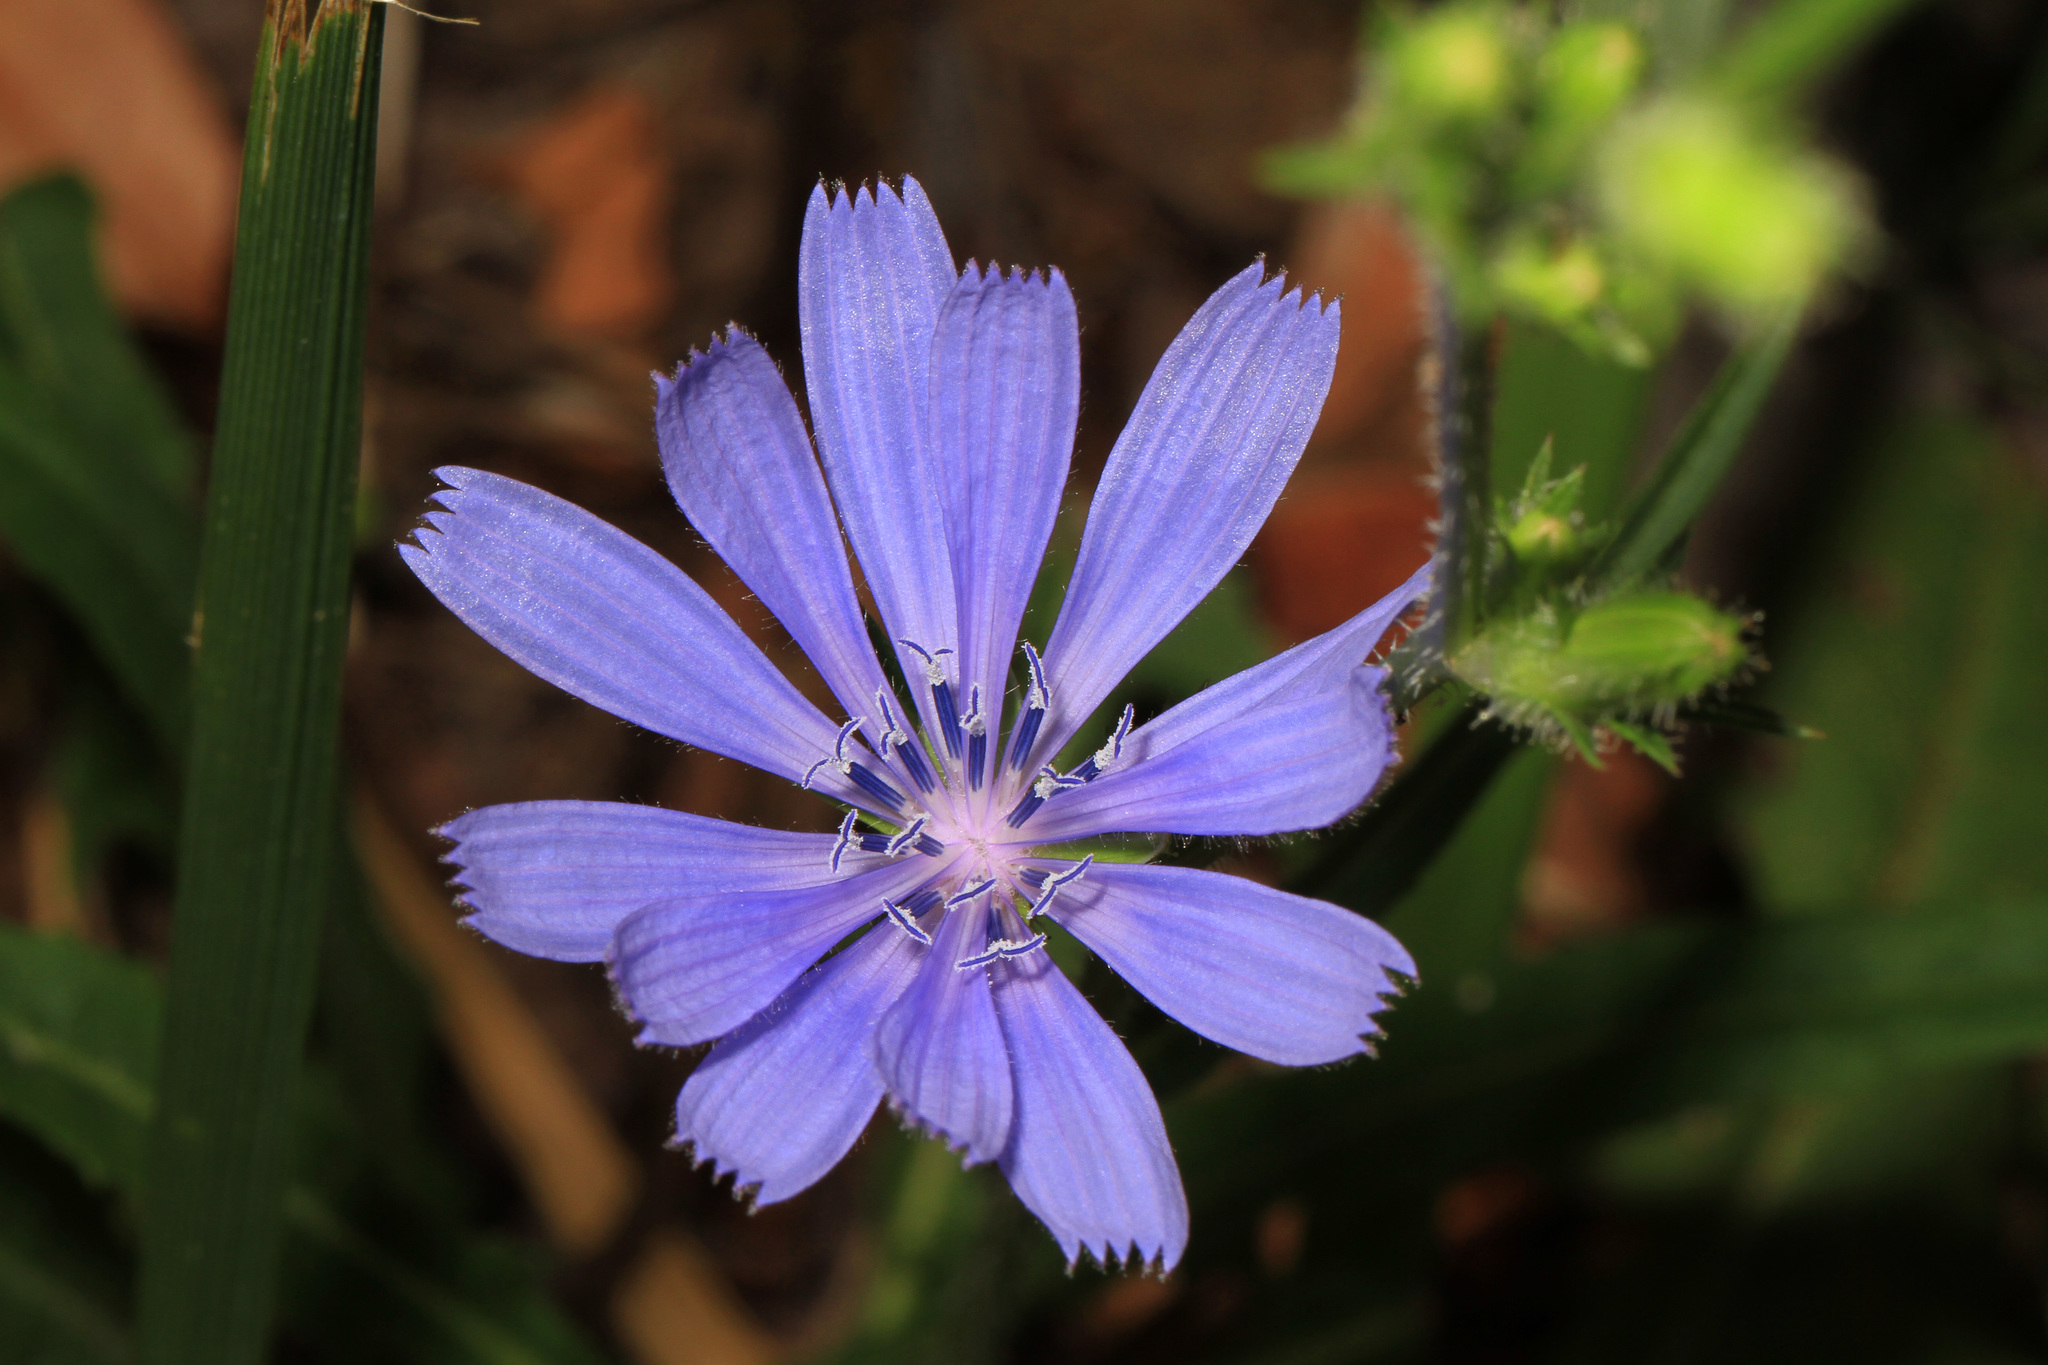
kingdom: Plantae
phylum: Tracheophyta
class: Magnoliopsida
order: Asterales
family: Asteraceae
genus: Cichorium
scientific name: Cichorium intybus
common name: Chicory
